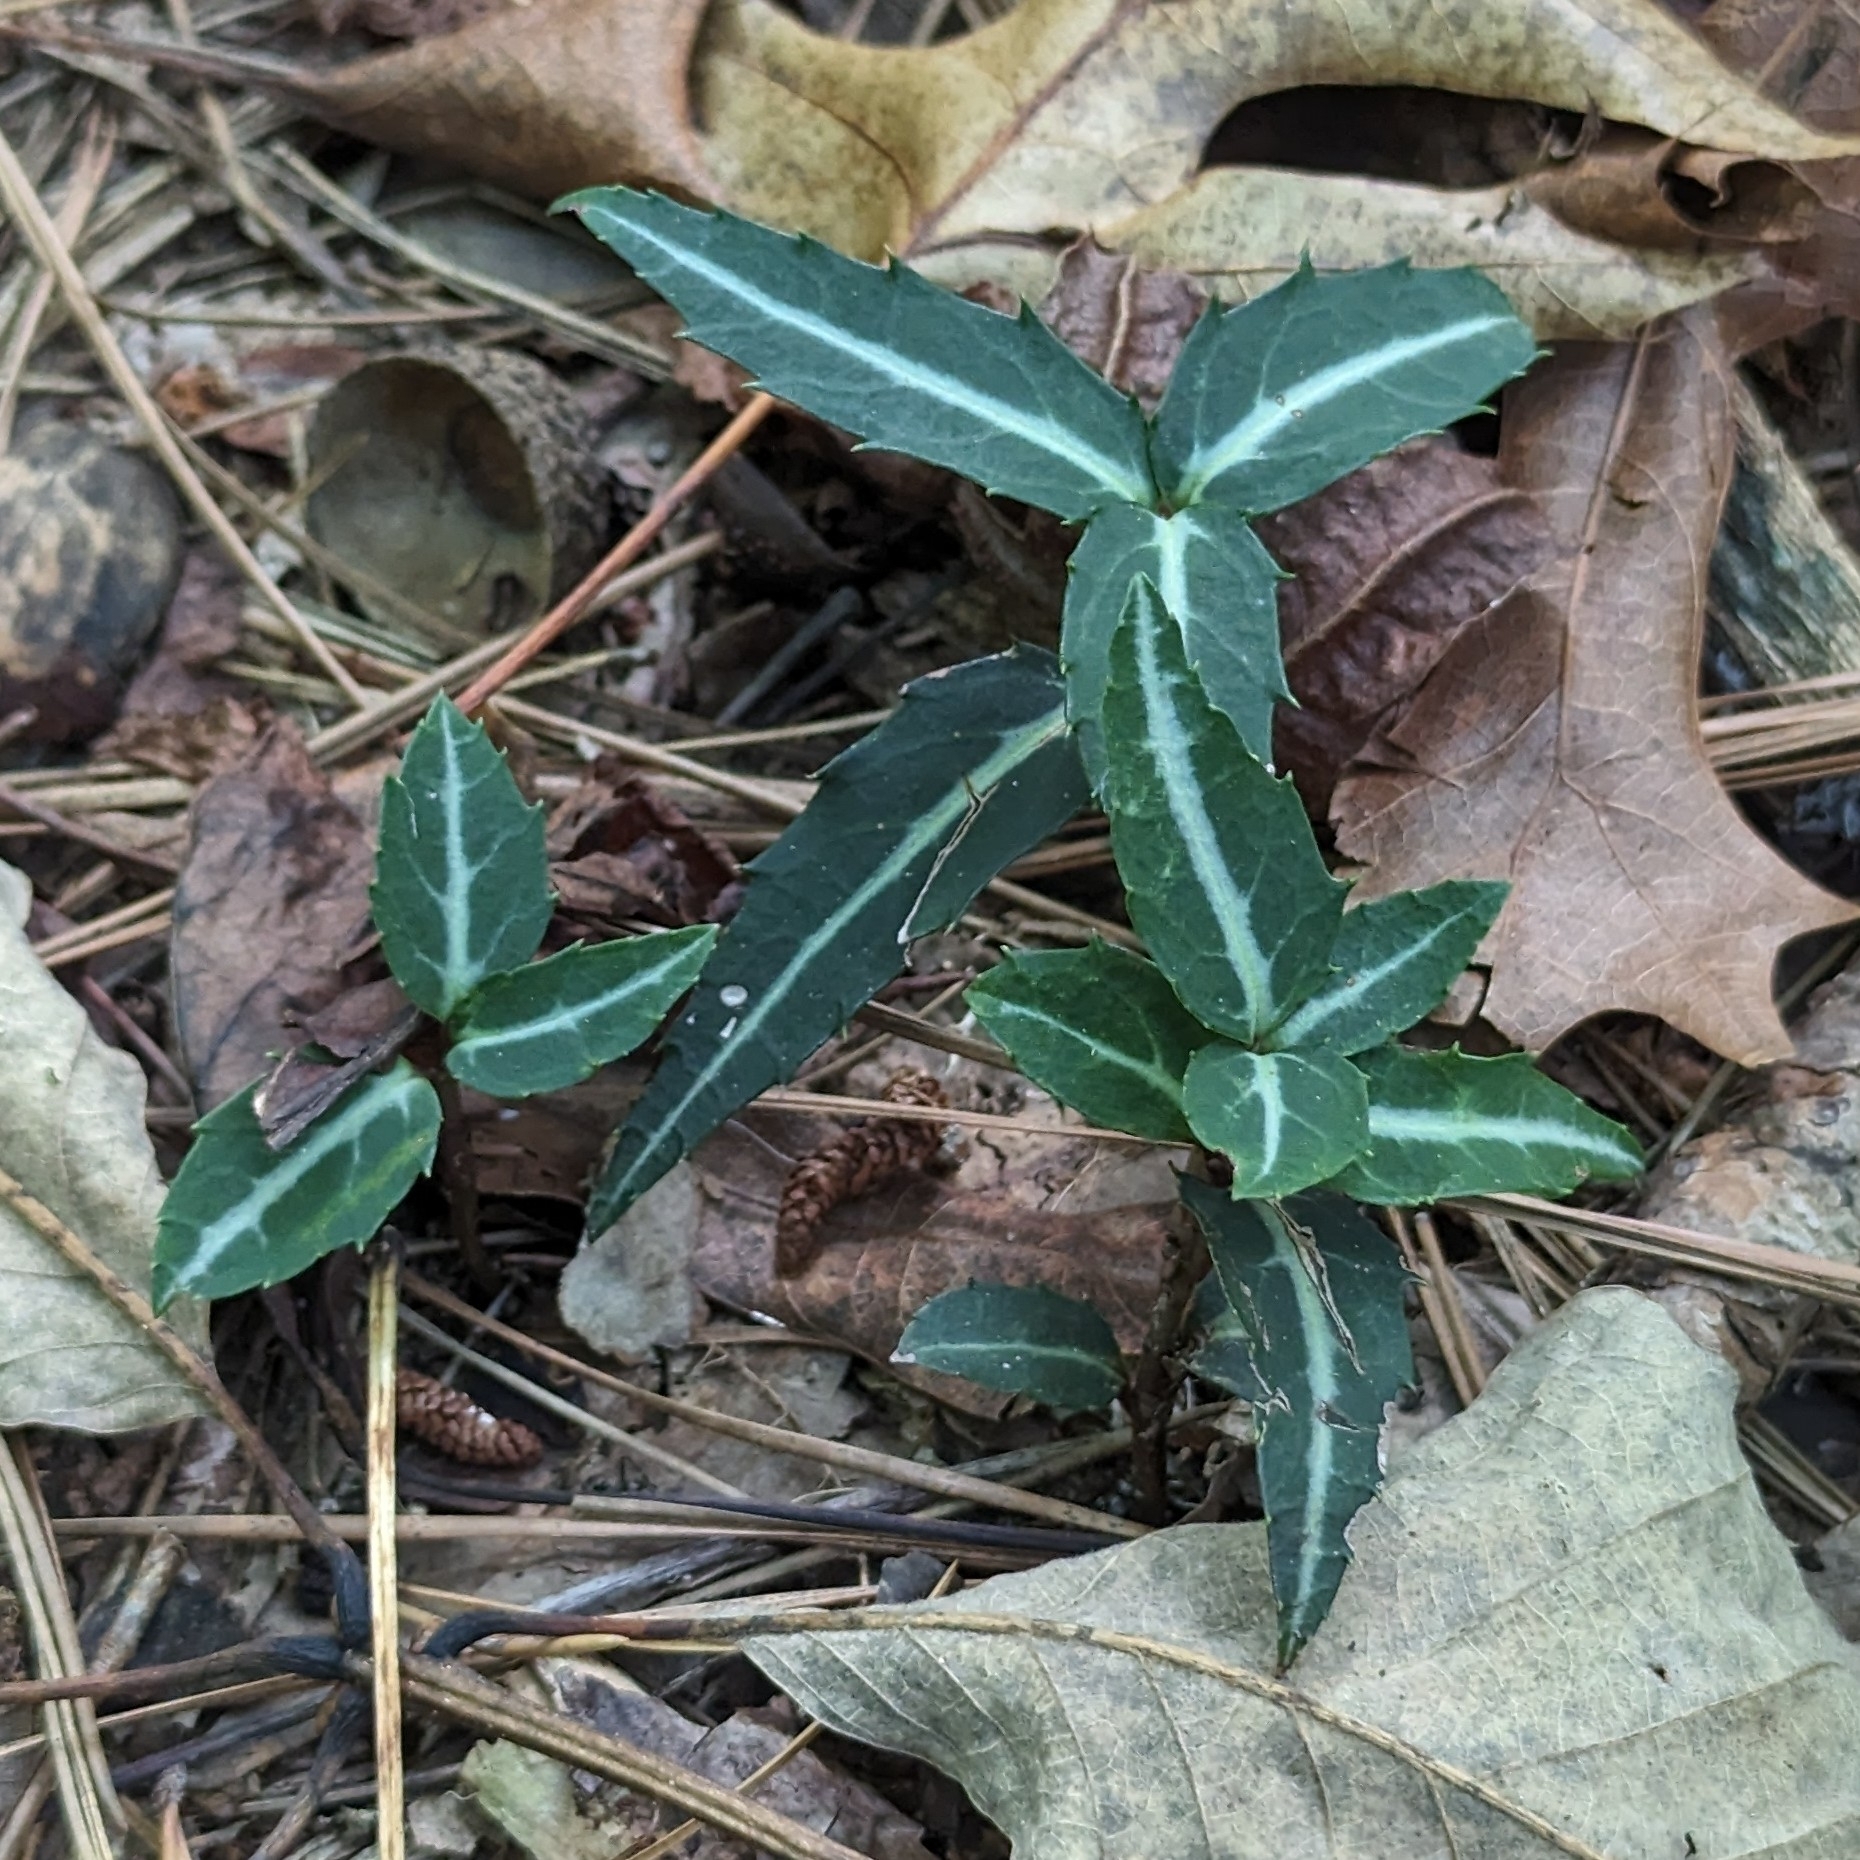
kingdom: Plantae
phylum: Tracheophyta
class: Magnoliopsida
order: Ericales
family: Ericaceae
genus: Chimaphila
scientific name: Chimaphila maculata
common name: Spotted pipsissewa
